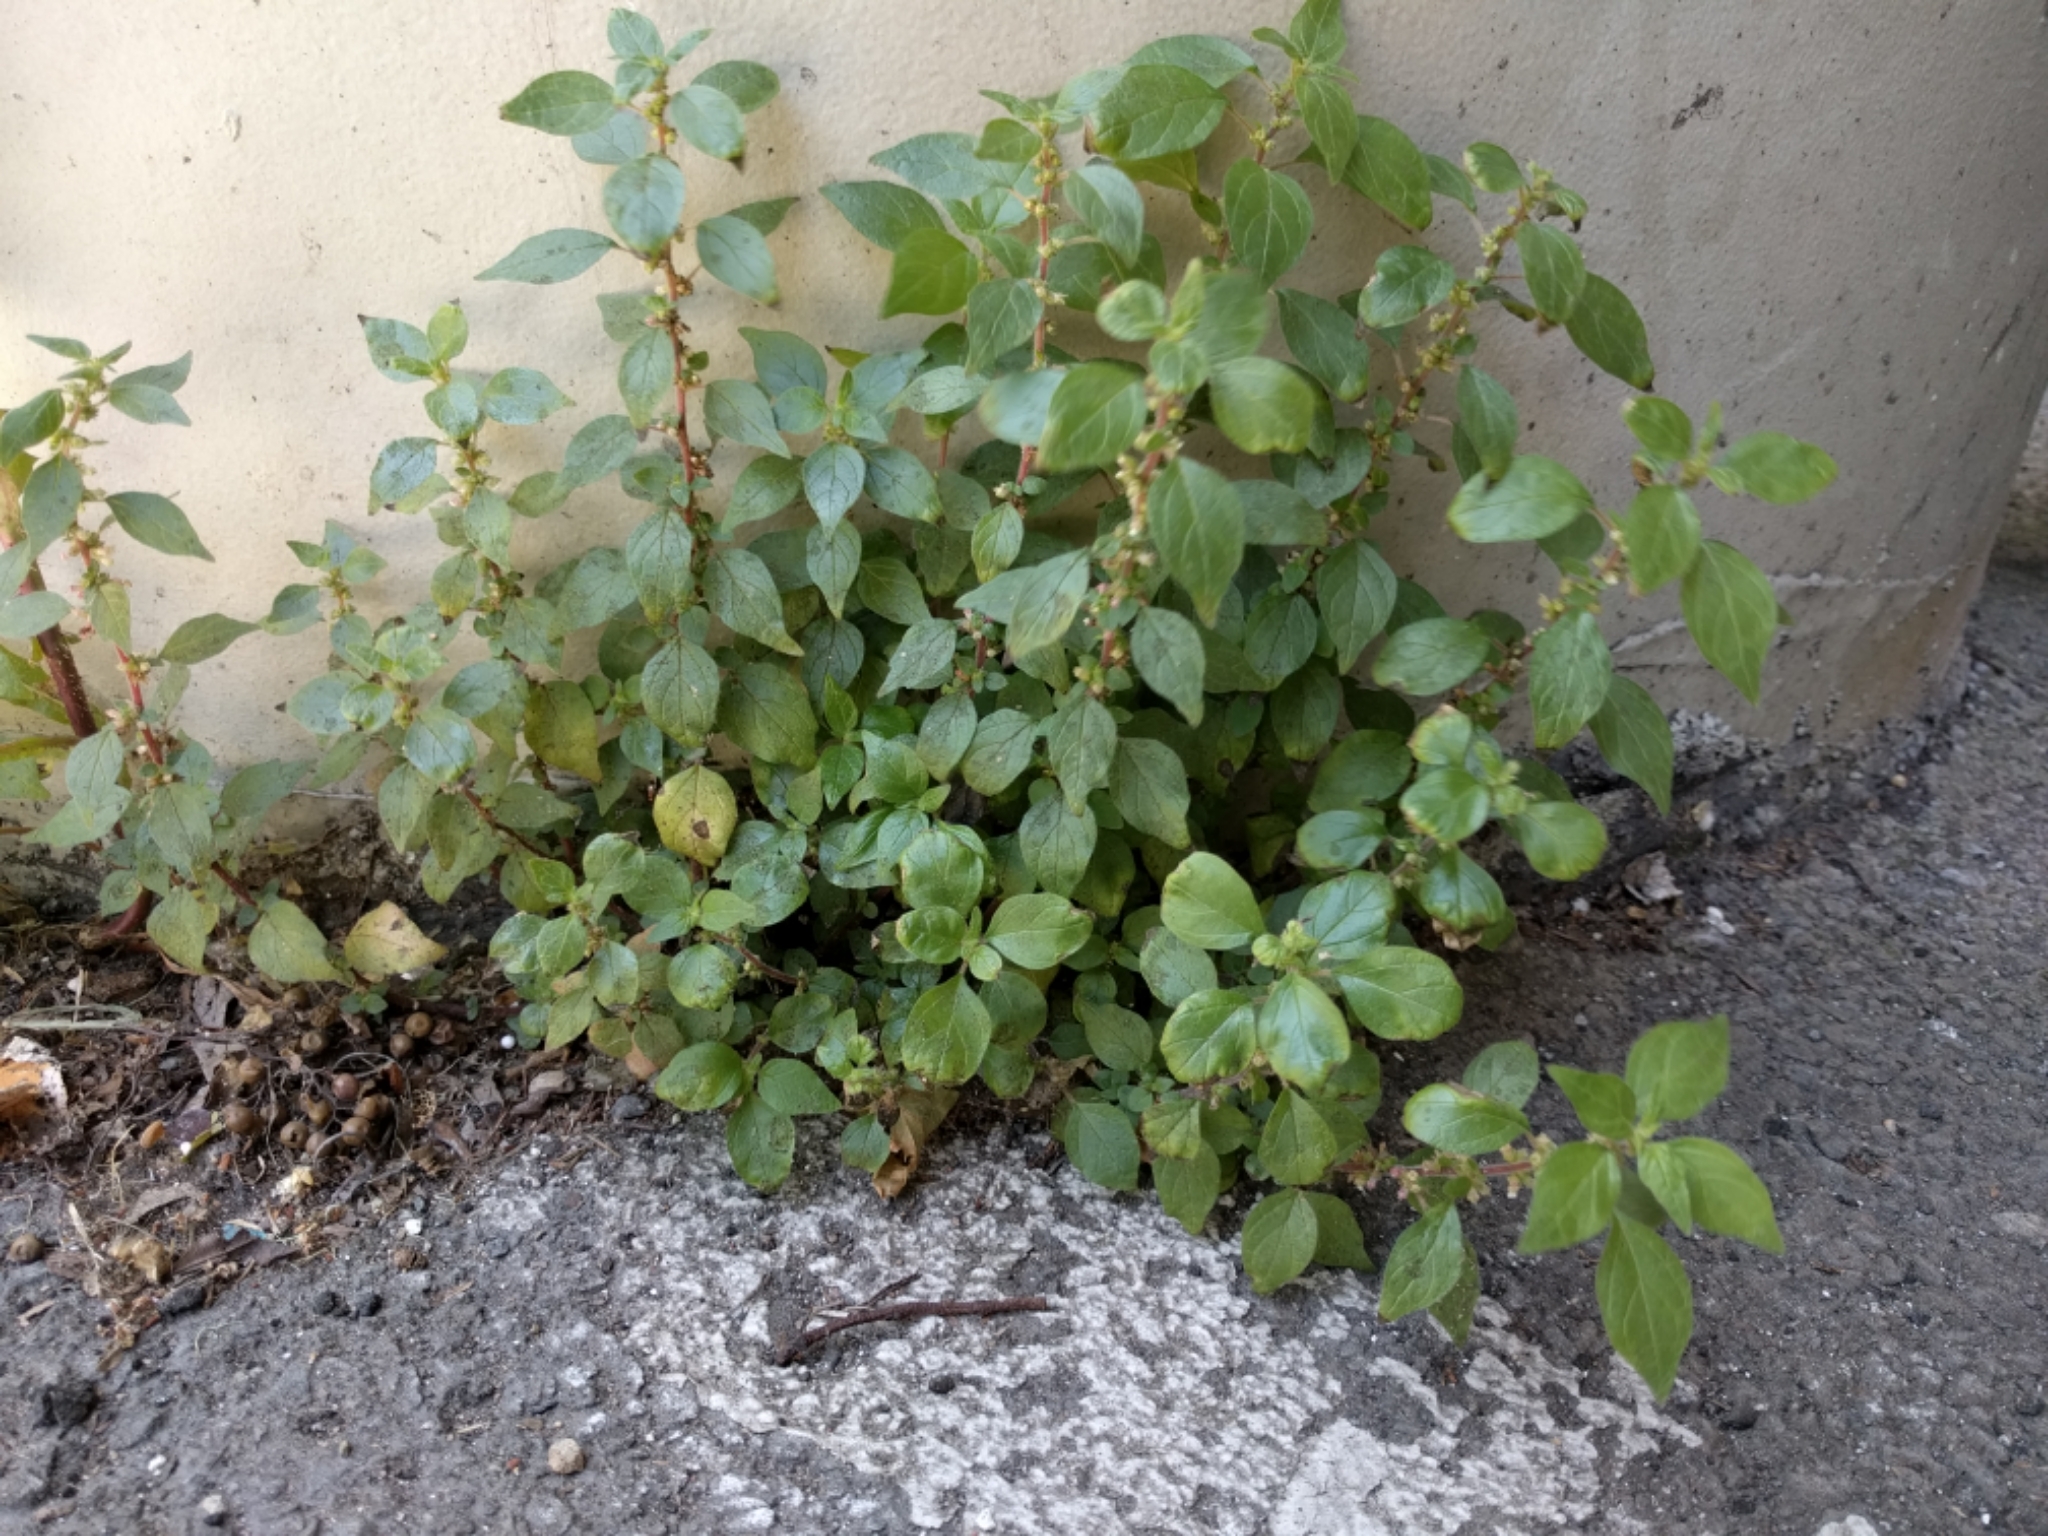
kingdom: Plantae
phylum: Tracheophyta
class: Magnoliopsida
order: Rosales
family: Urticaceae
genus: Parietaria
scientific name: Parietaria judaica
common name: Pellitory-of-the-wall
